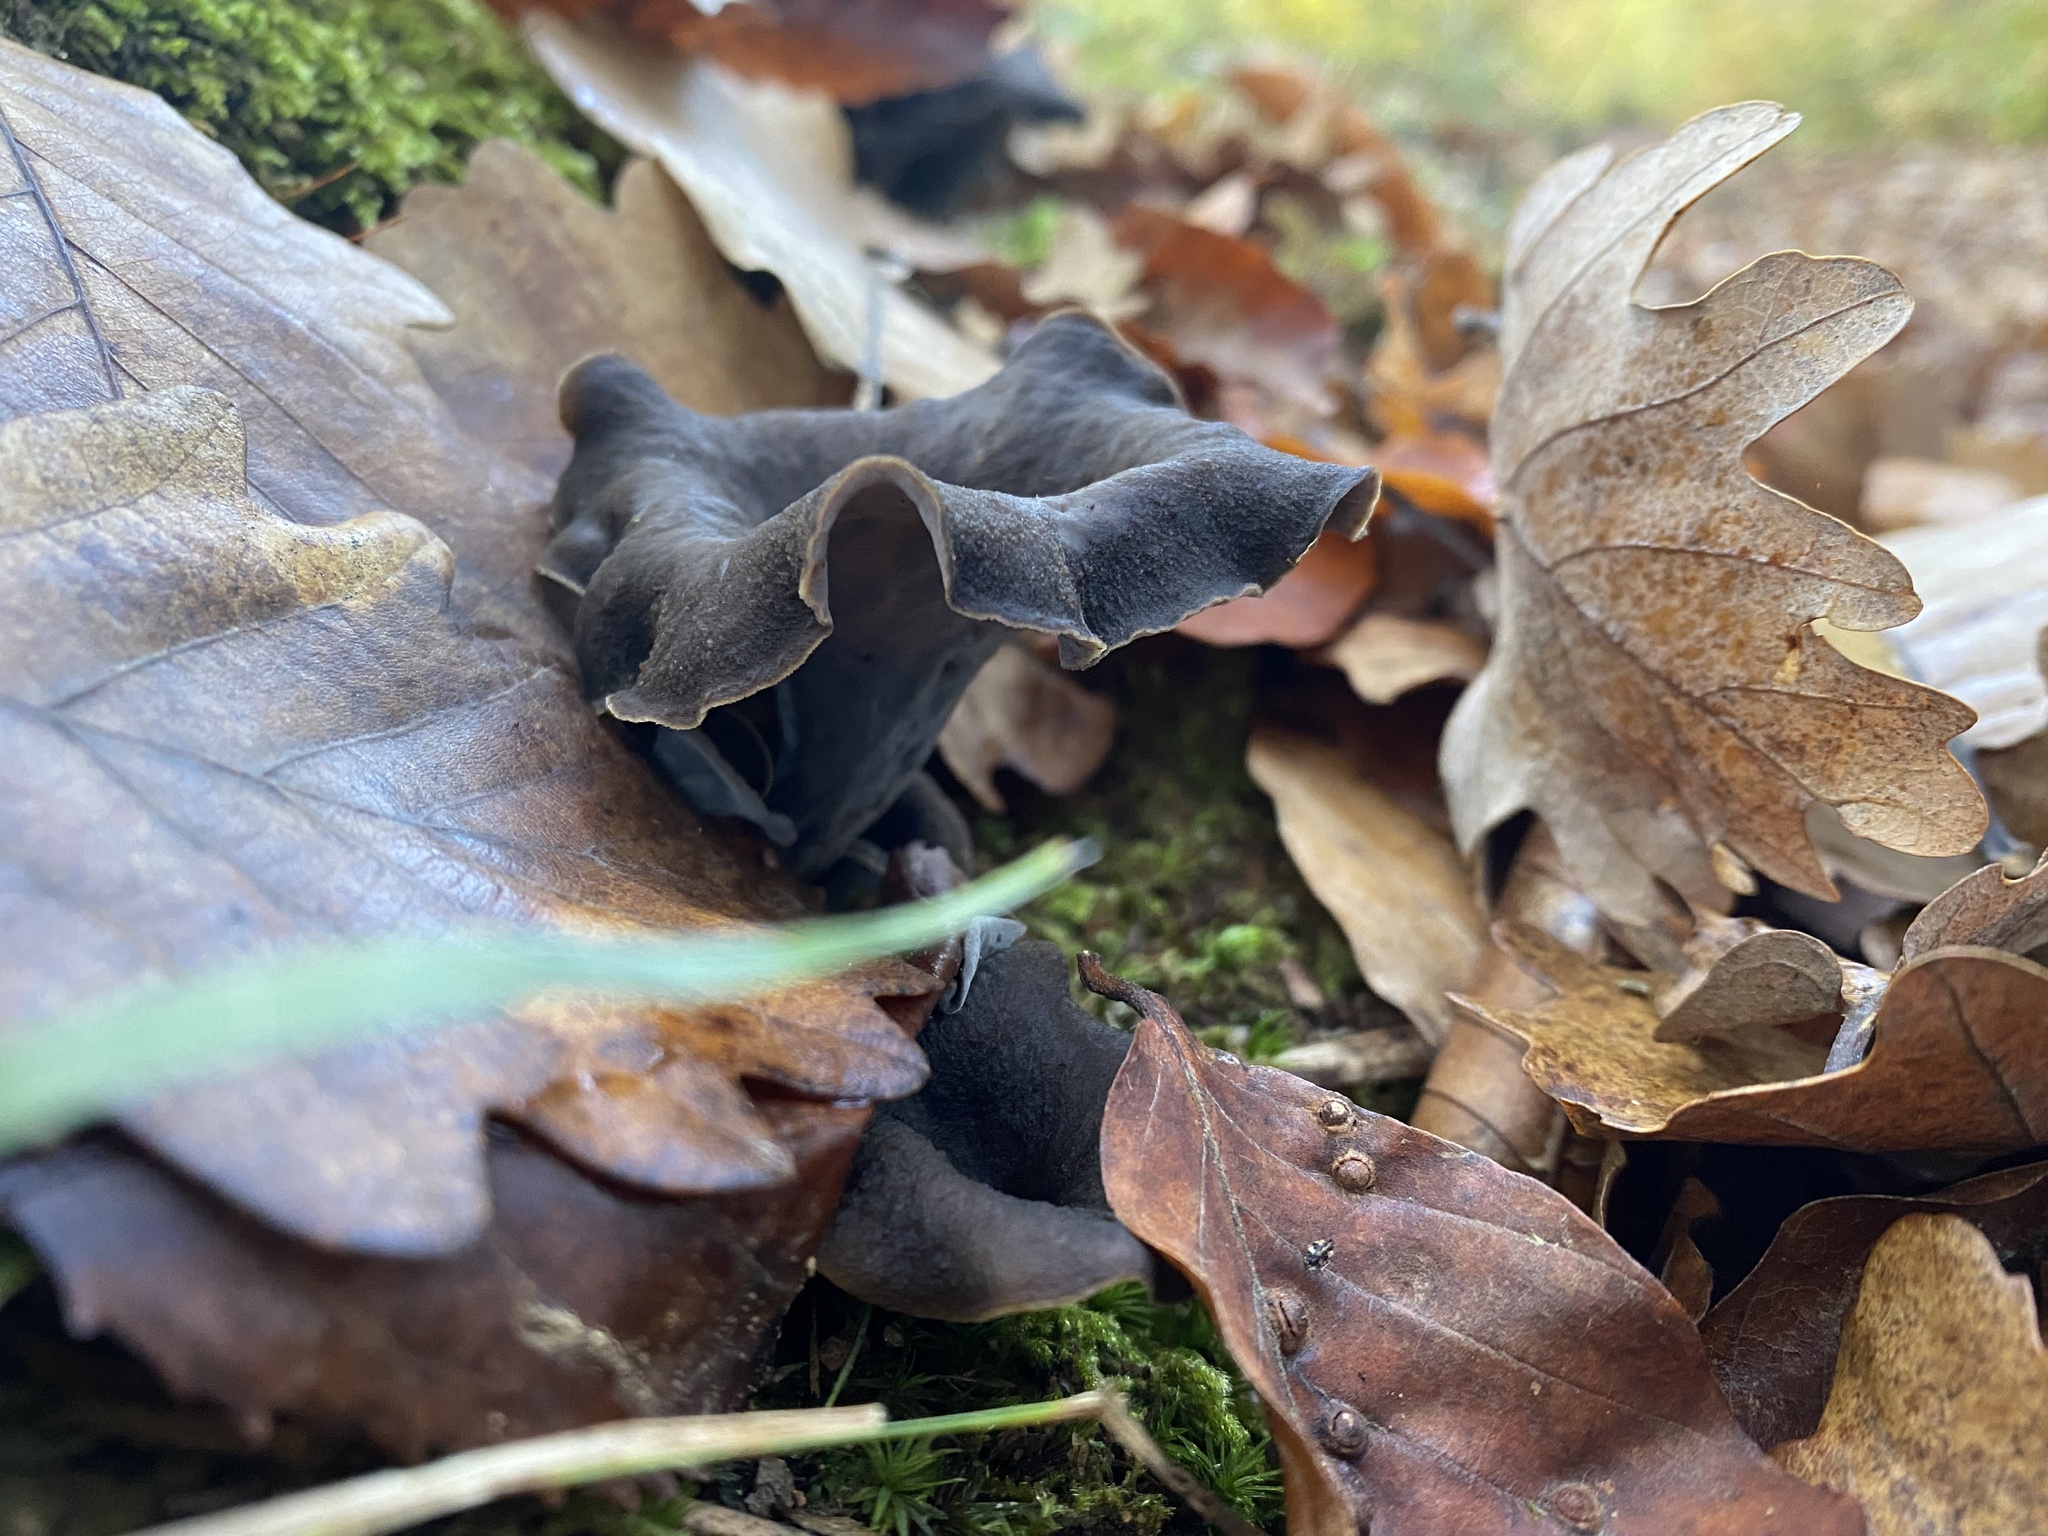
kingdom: Fungi
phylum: Basidiomycota
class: Agaricomycetes
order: Cantharellales
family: Hydnaceae
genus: Craterellus
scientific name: Craterellus cornucopioides
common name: Horn of plenty
